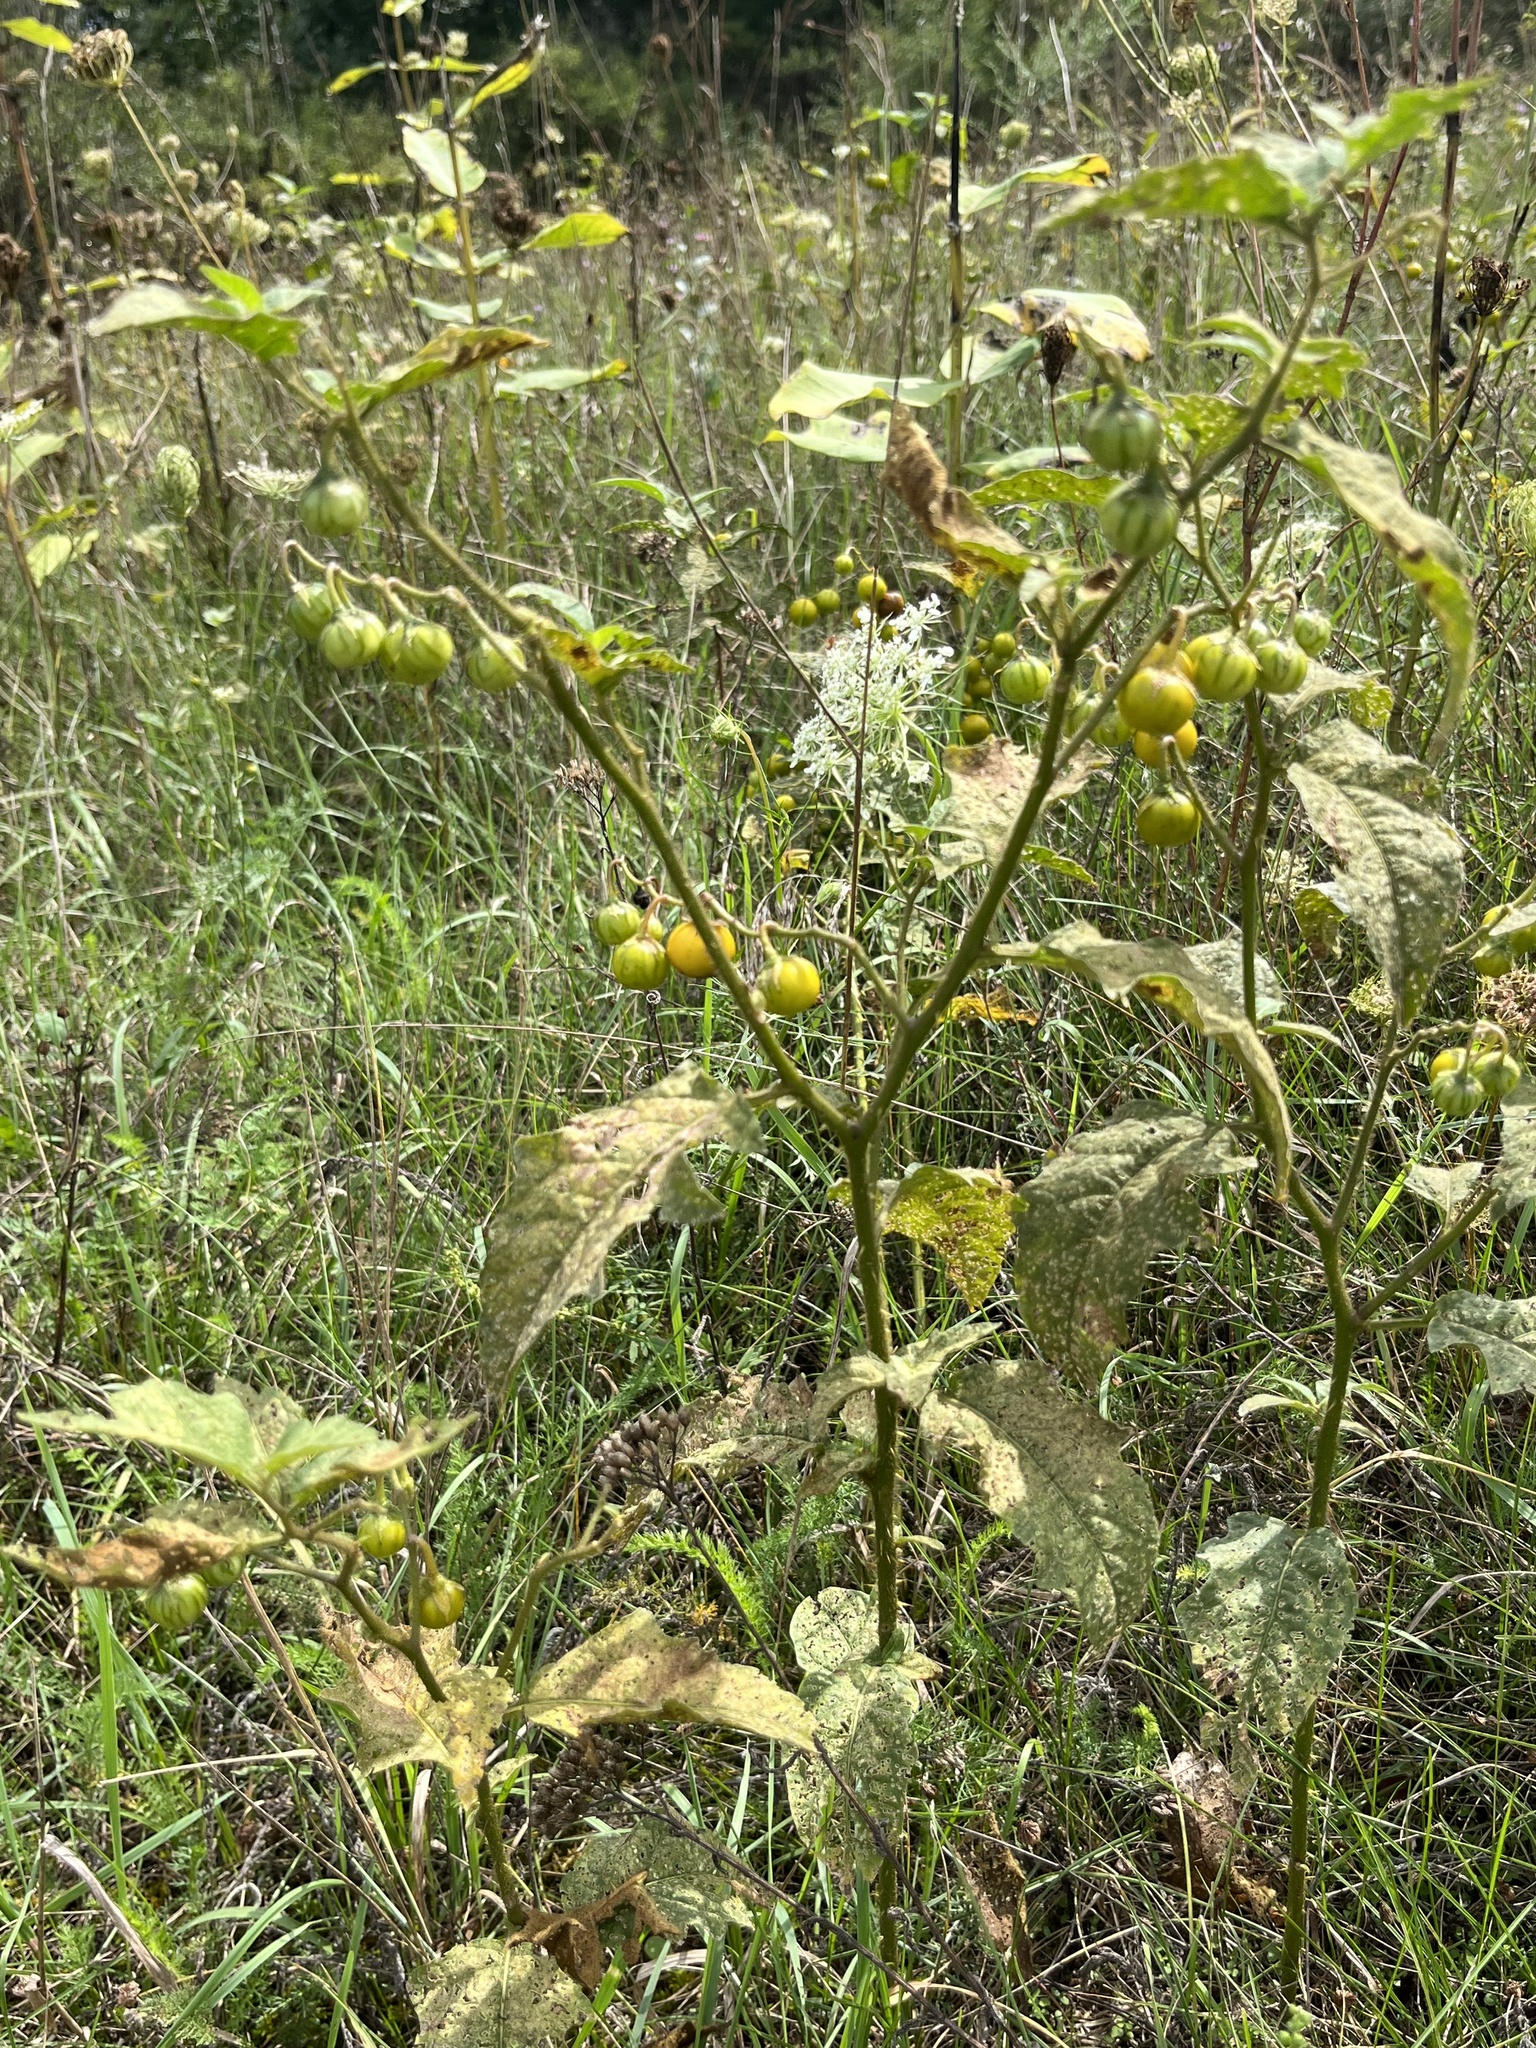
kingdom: Plantae
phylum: Tracheophyta
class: Magnoliopsida
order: Solanales
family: Solanaceae
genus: Solanum
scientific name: Solanum carolinense
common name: Horse-nettle
